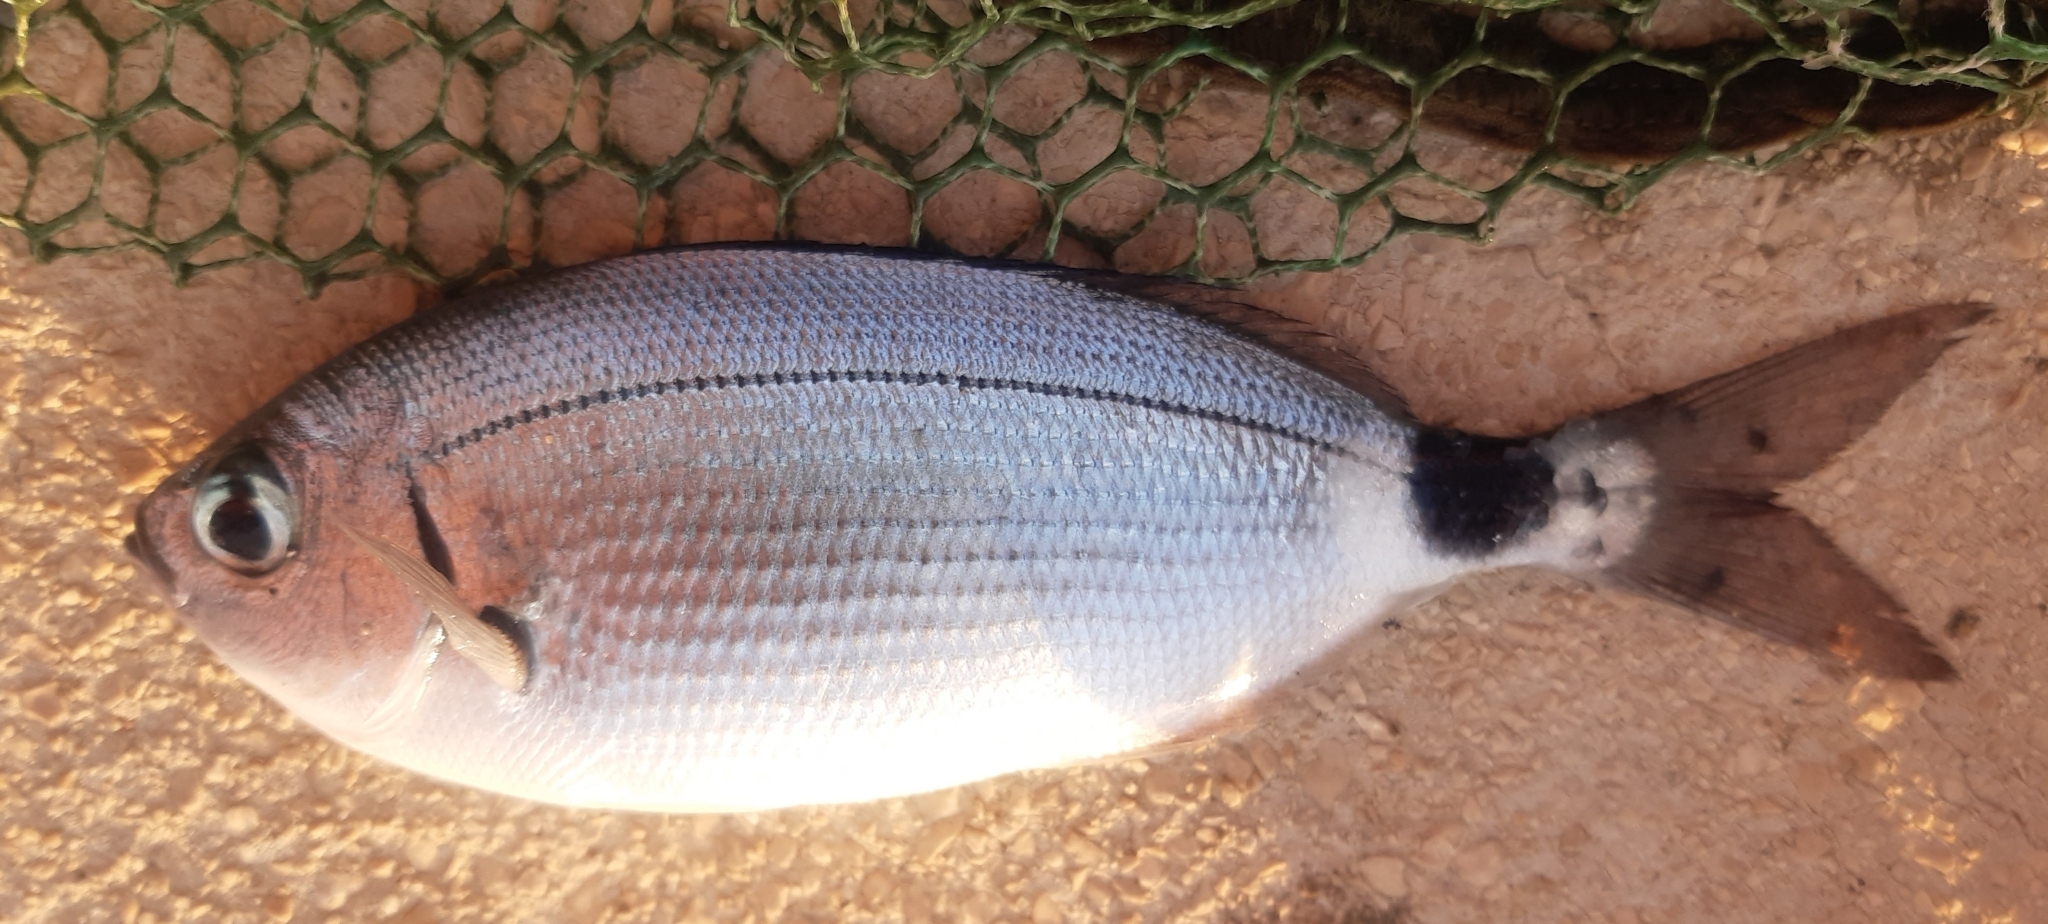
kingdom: Animalia
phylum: Chordata
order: Perciformes
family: Sparidae
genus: Oblada
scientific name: Oblada melanura
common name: Saddled seabream
